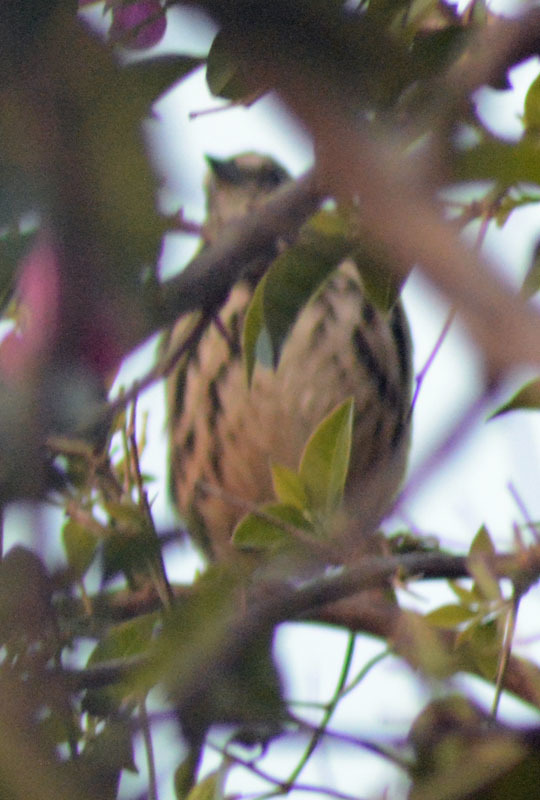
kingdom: Animalia
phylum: Chordata
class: Aves
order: Passeriformes
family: Passerellidae
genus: Melospiza
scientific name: Melospiza melodia
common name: Song sparrow
